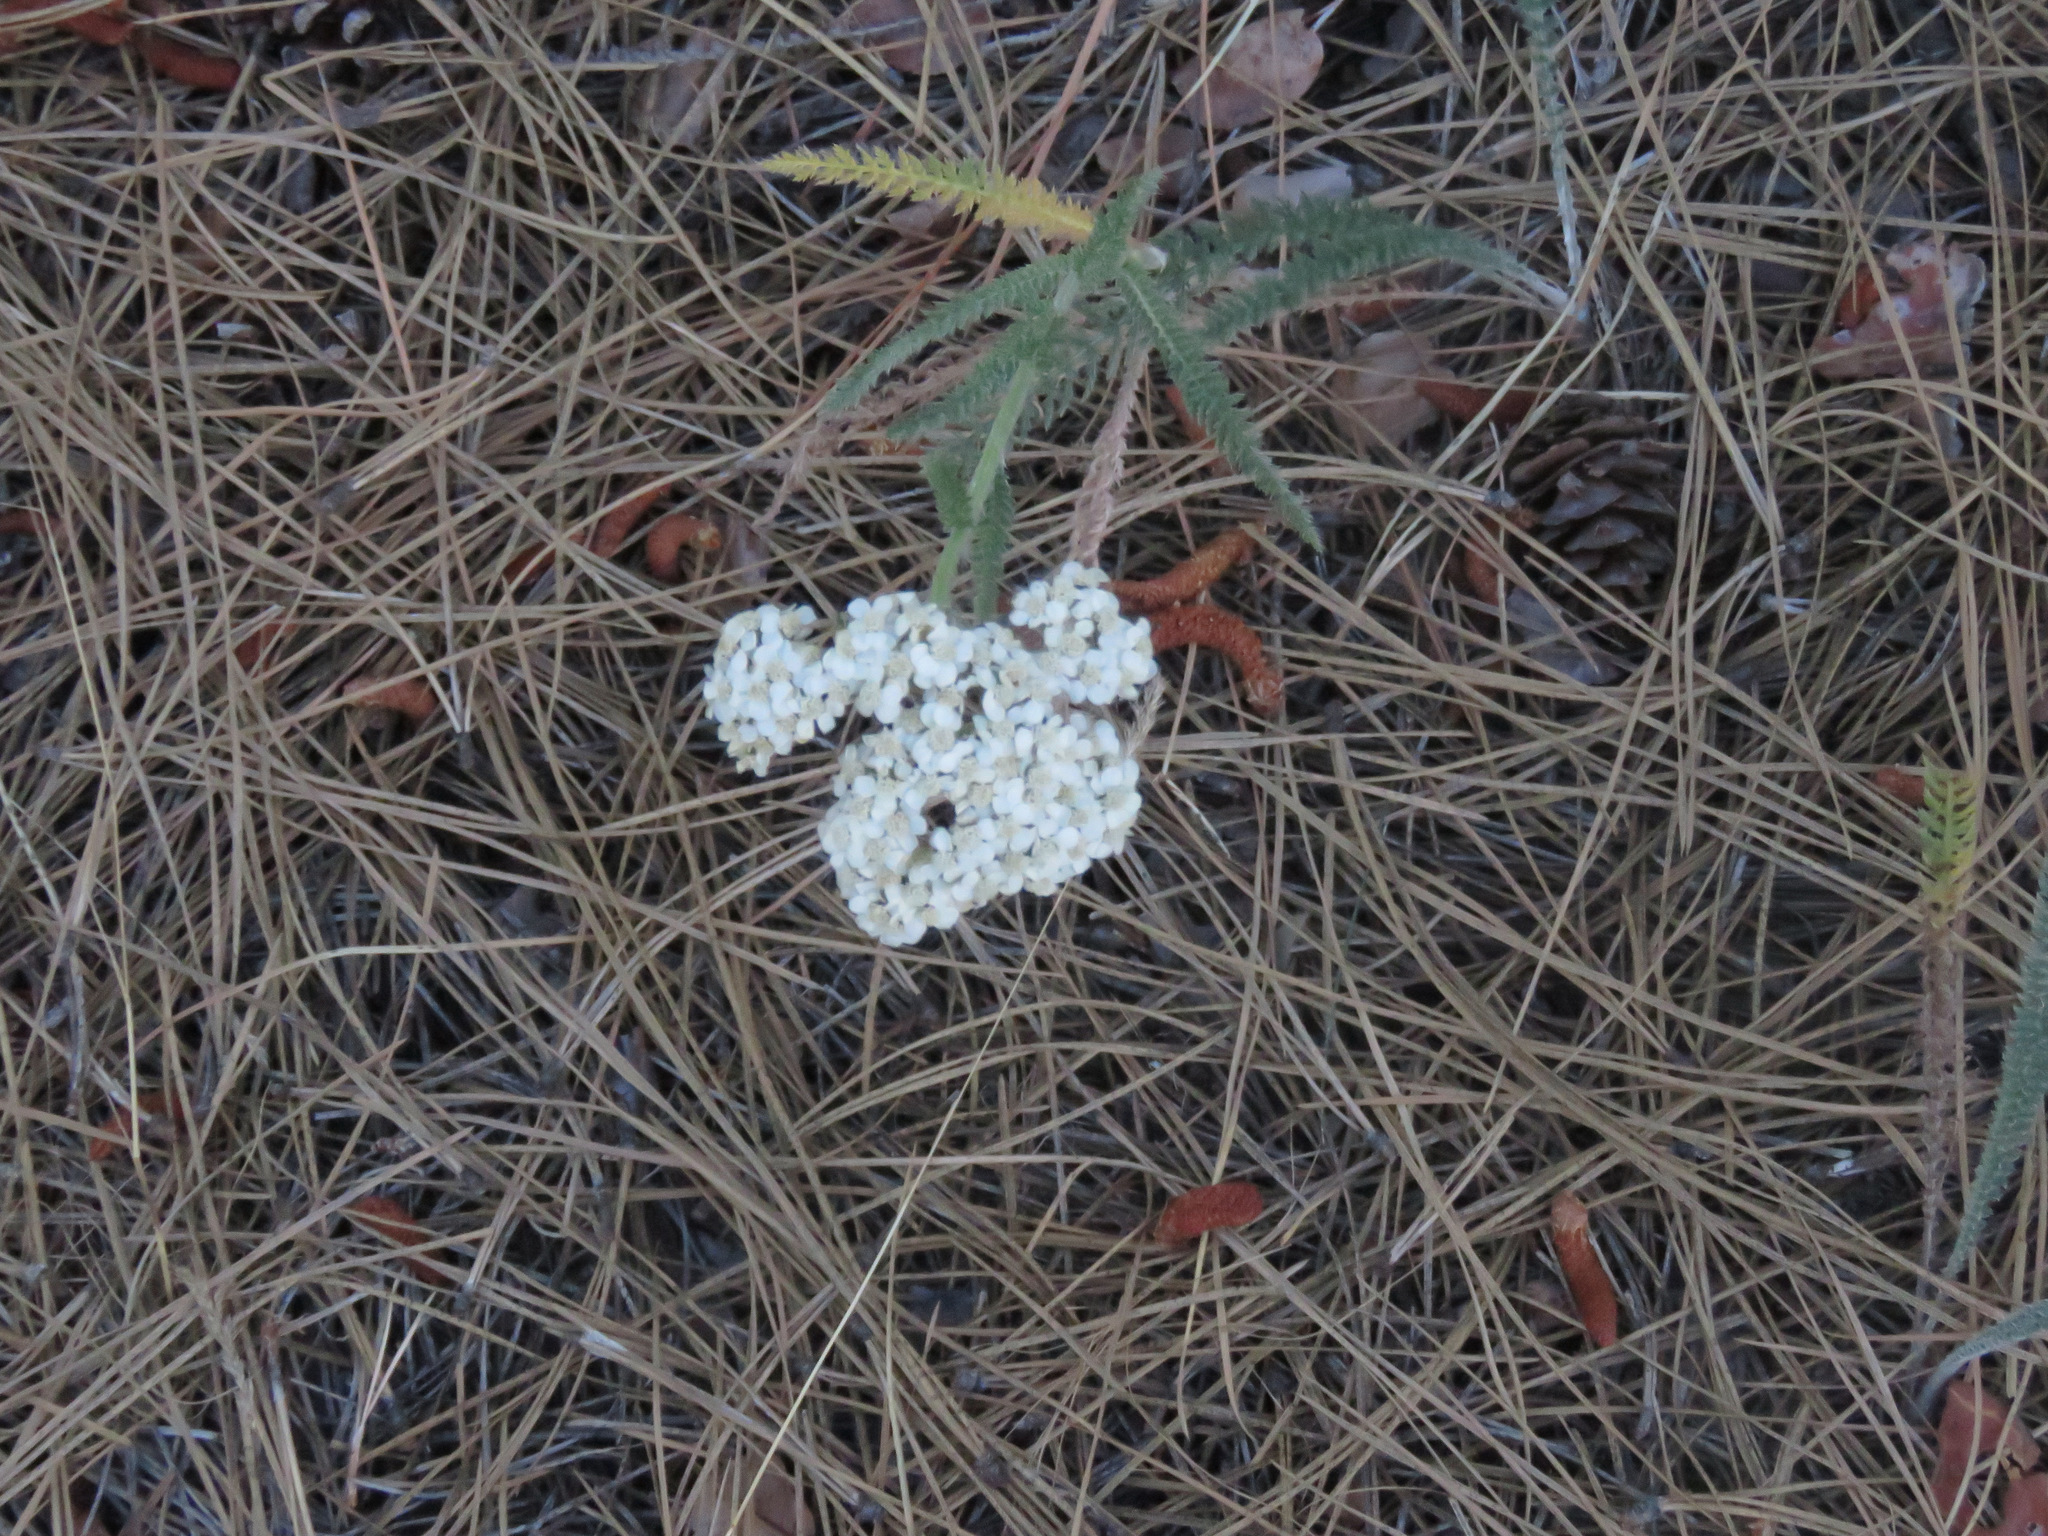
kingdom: Plantae
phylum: Tracheophyta
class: Magnoliopsida
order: Asterales
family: Asteraceae
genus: Achillea
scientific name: Achillea millefolium
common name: Yarrow
